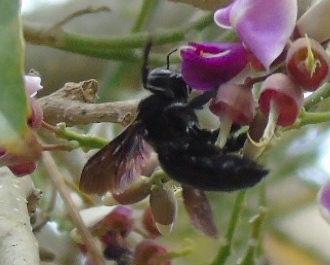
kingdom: Animalia
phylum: Arthropoda
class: Insecta
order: Hymenoptera
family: Apidae
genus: Xylocopa
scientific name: Xylocopa
